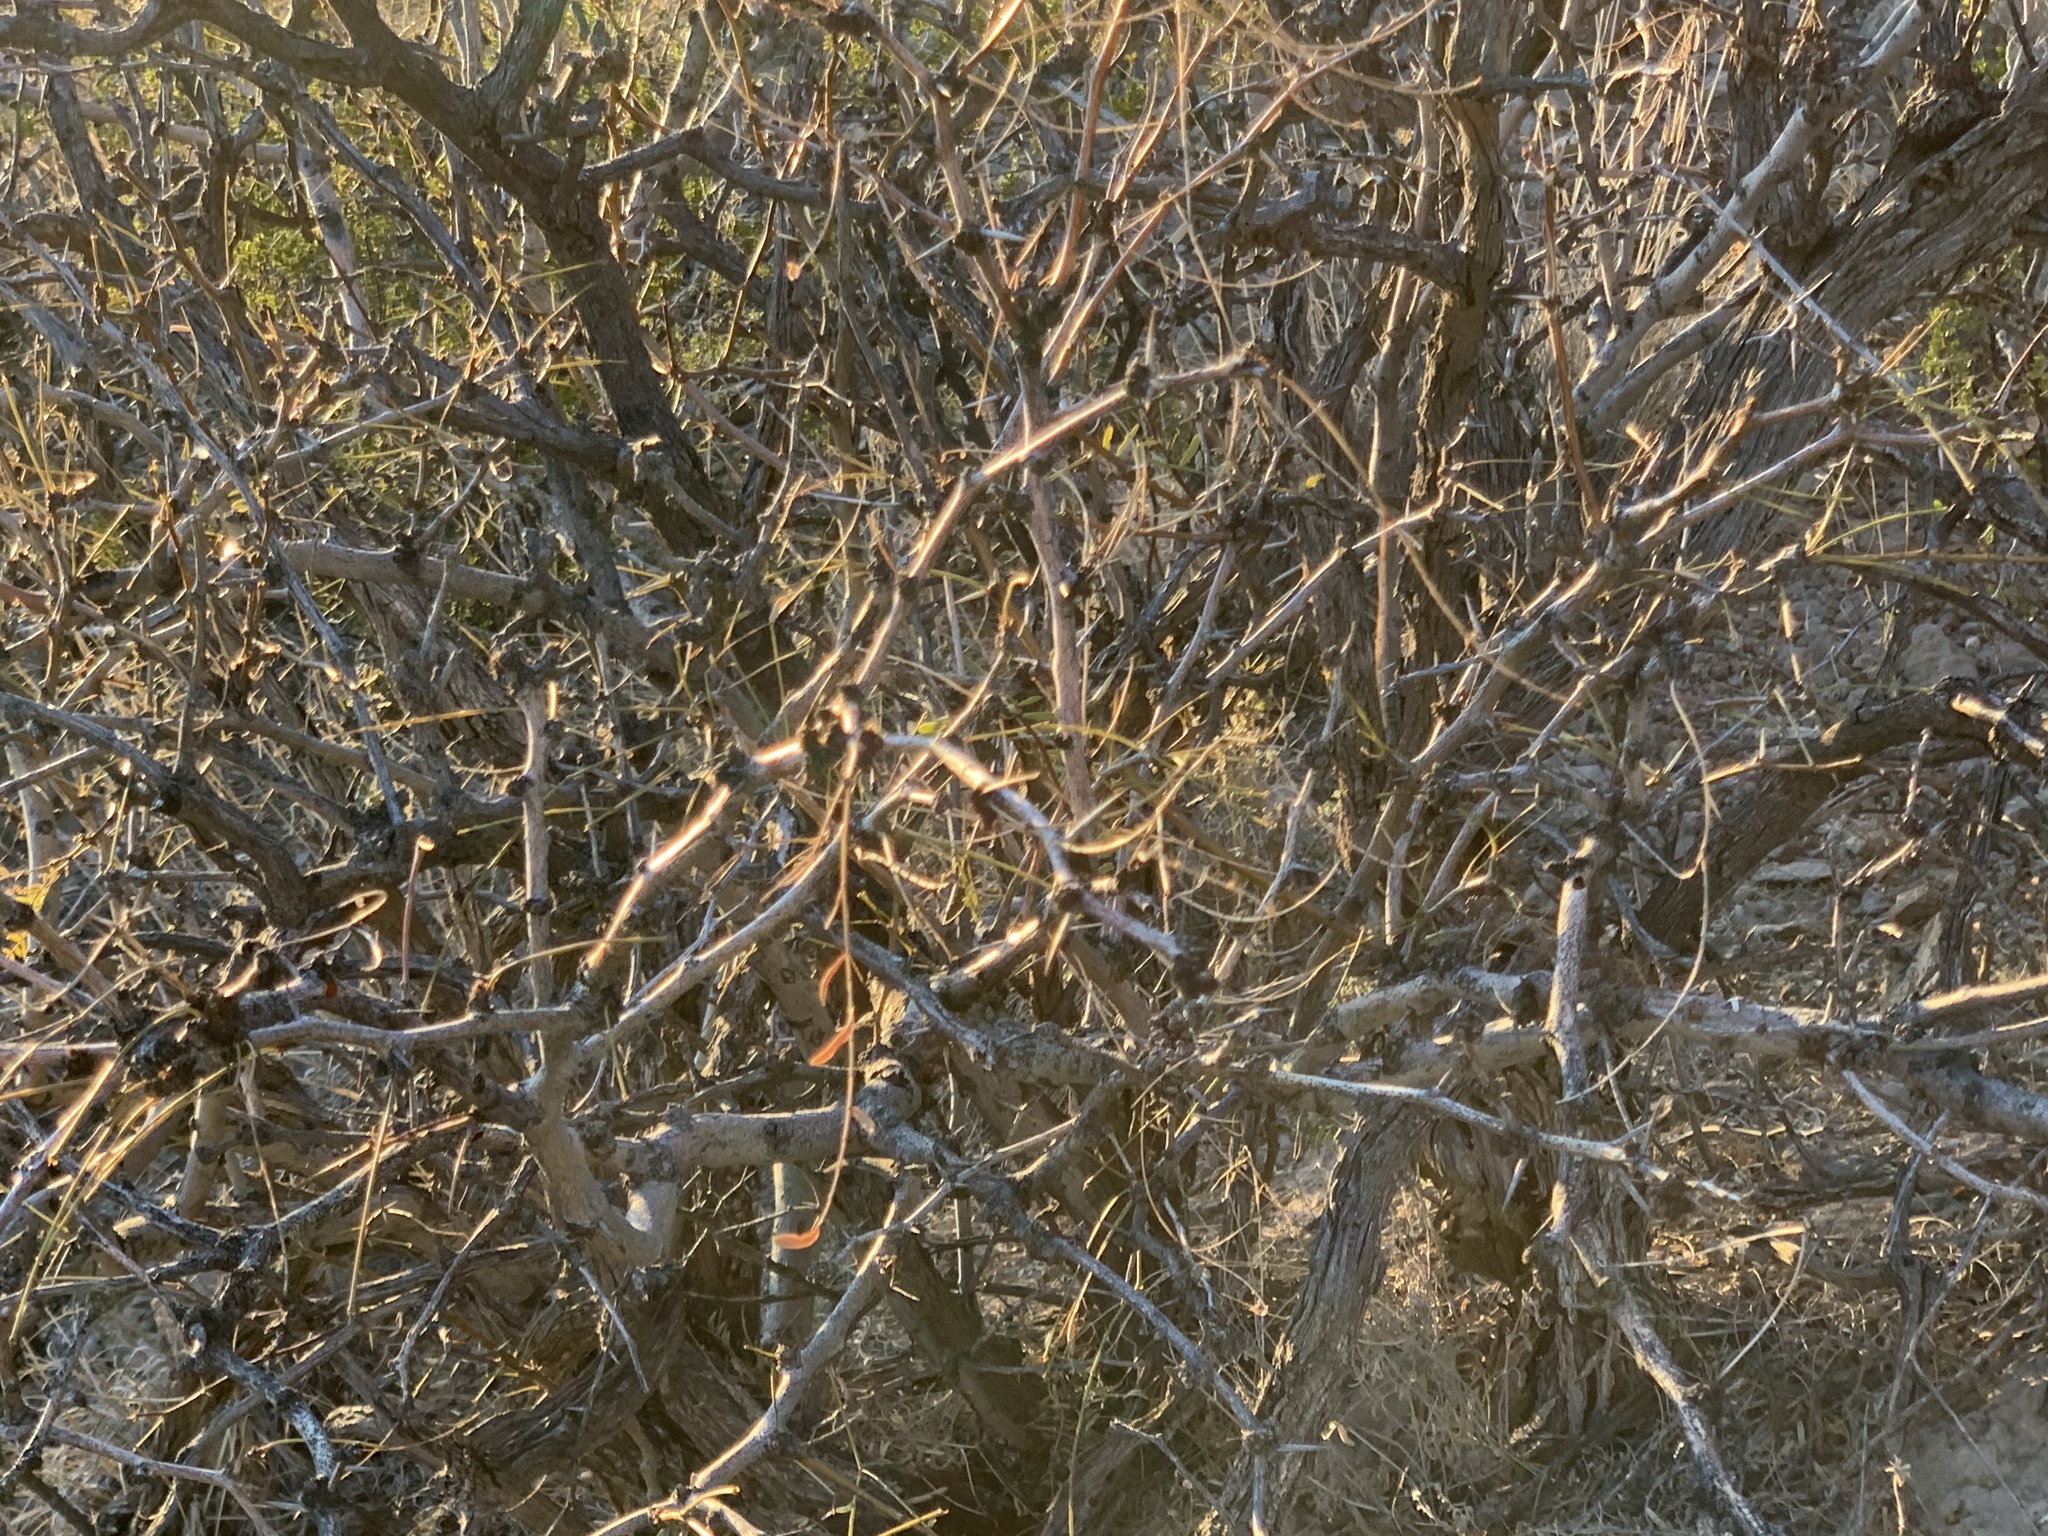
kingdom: Plantae
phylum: Tracheophyta
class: Magnoliopsida
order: Fabales
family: Fabaceae
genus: Prosopis
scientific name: Prosopis glandulosa
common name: Honey mesquite
